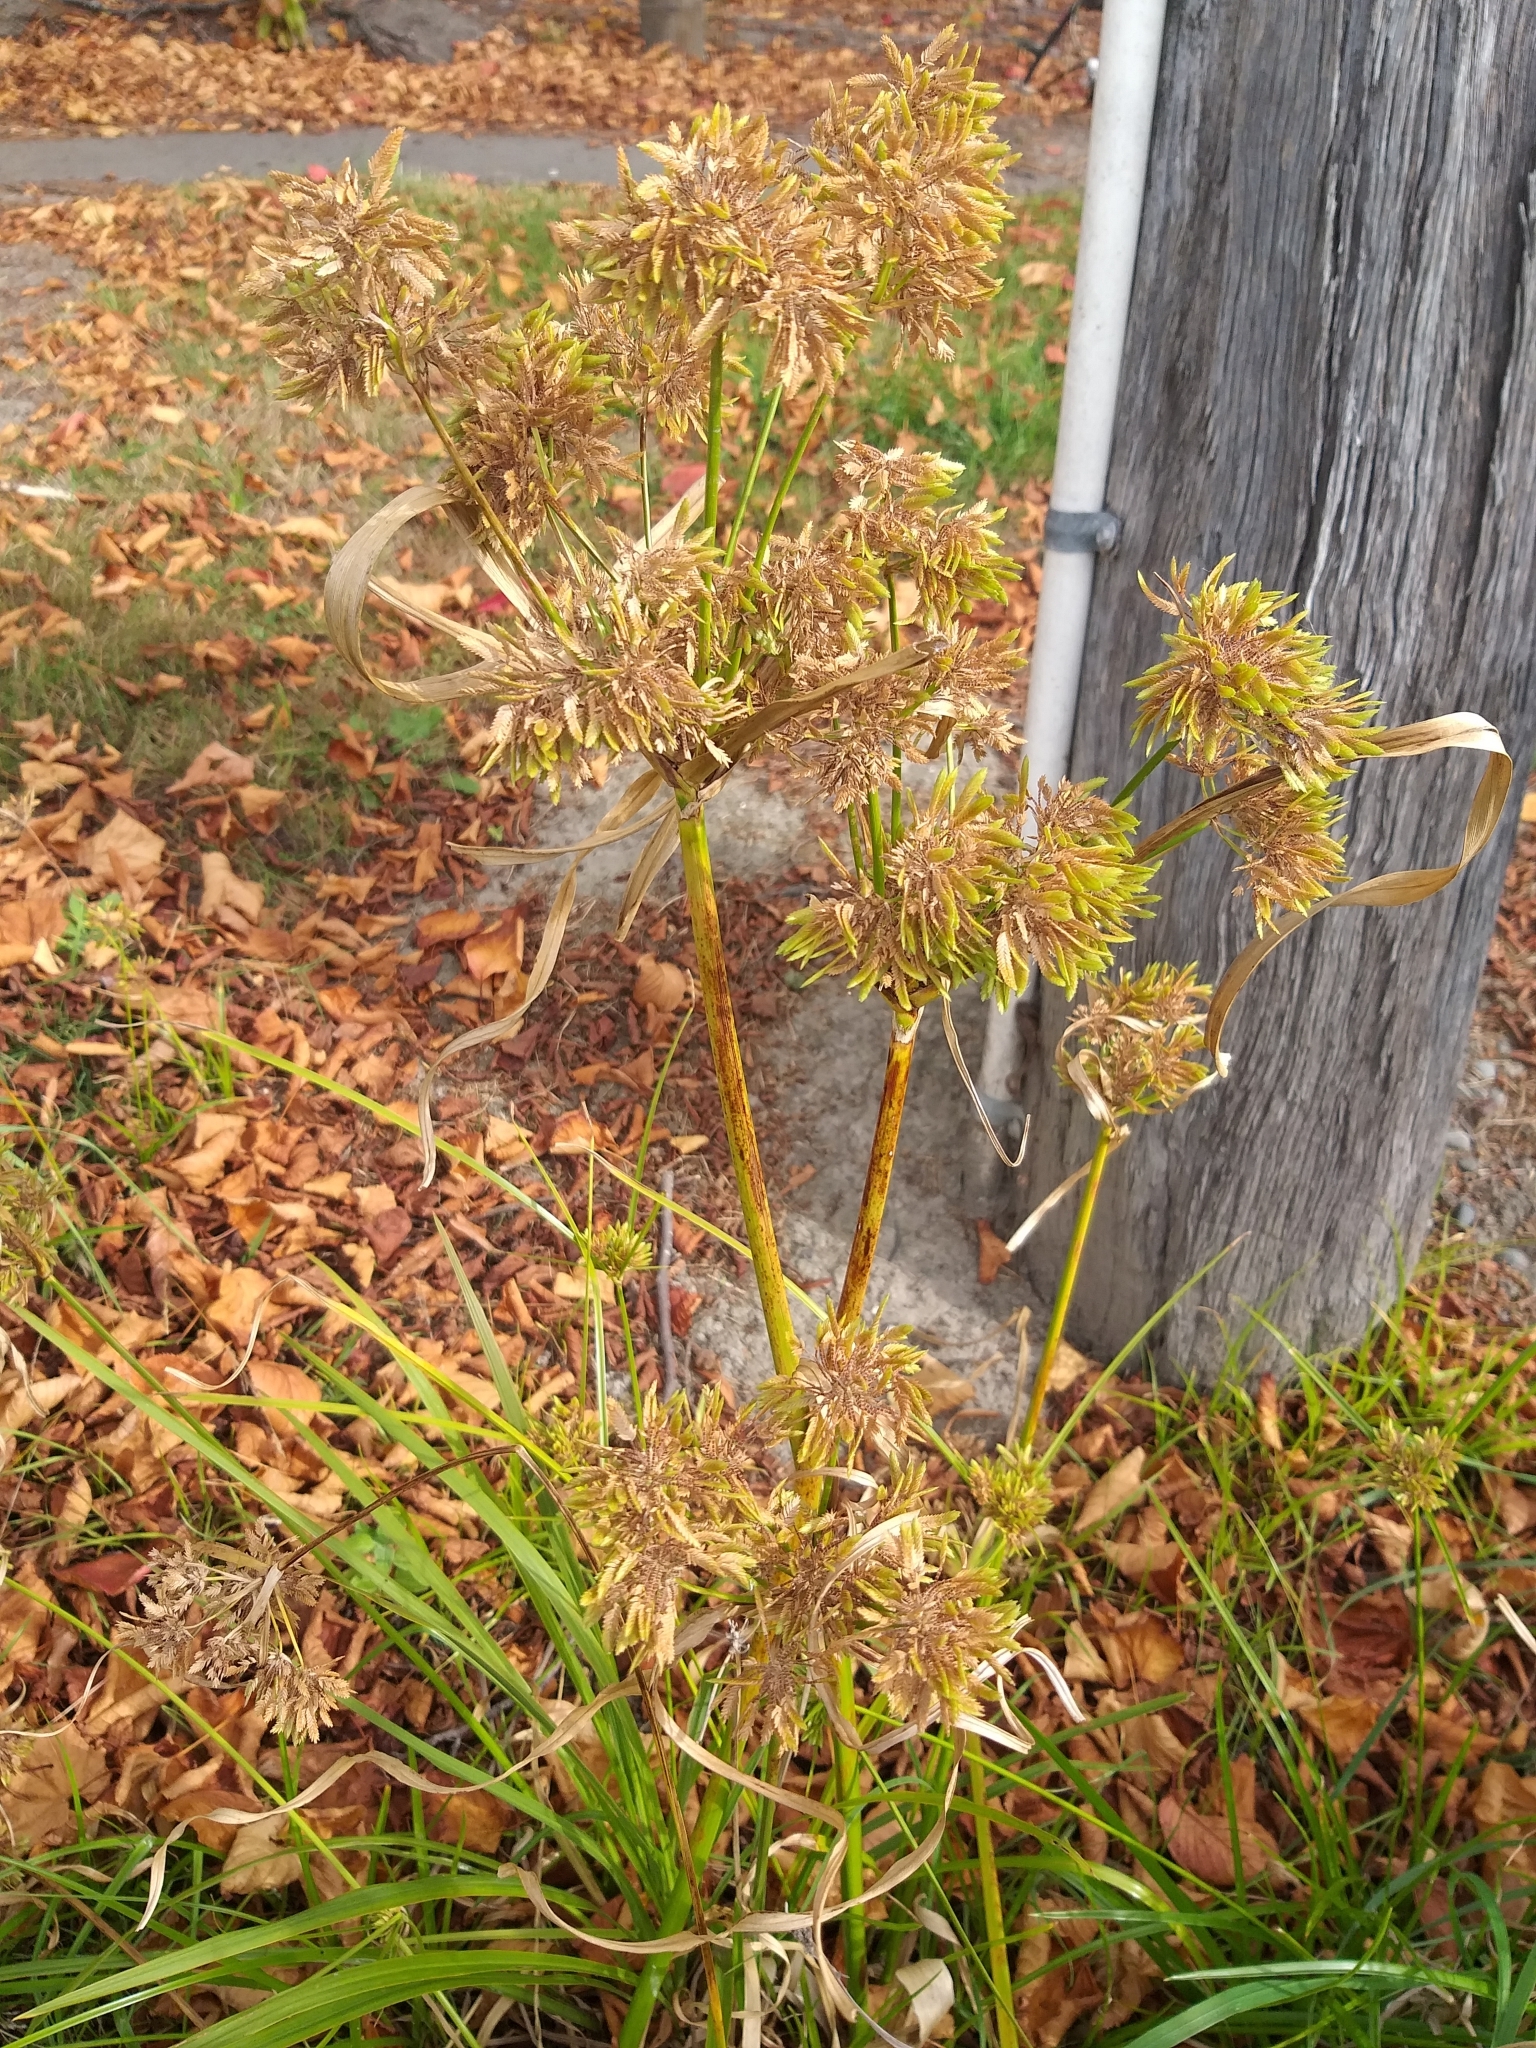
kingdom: Plantae
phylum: Tracheophyta
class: Liliopsida
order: Poales
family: Cyperaceae
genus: Cyperus
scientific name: Cyperus eragrostis
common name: Tall flatsedge
